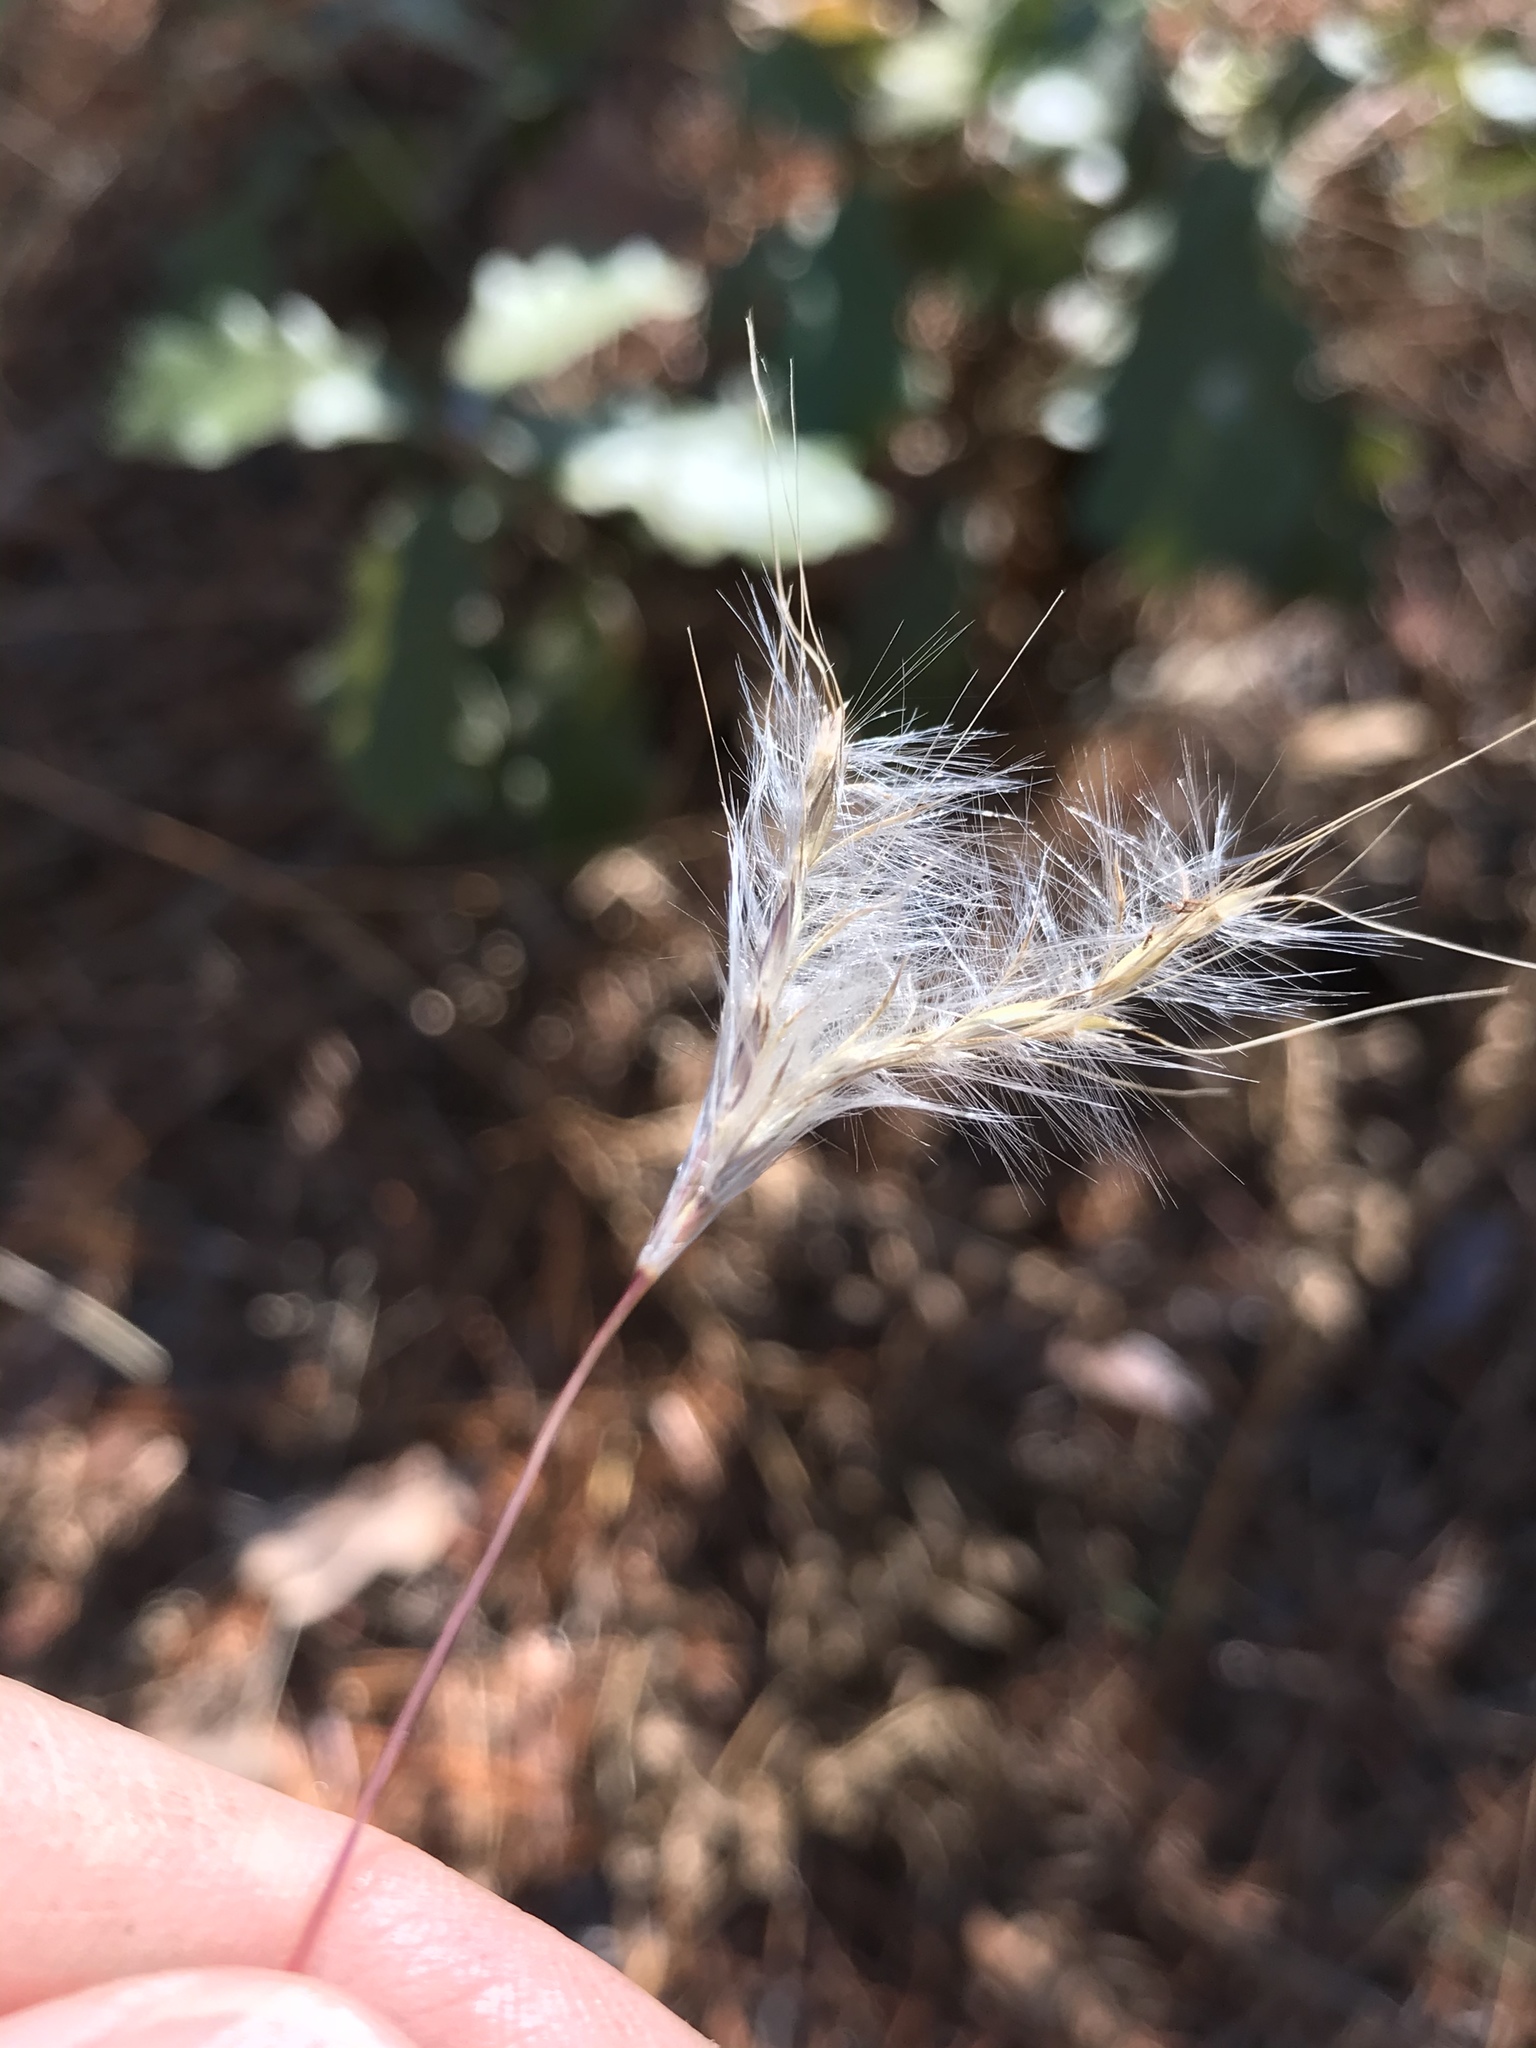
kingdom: Plantae
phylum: Tracheophyta
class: Liliopsida
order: Poales
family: Poaceae
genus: Andropogon
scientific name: Andropogon ternarius
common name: Split bluestem
